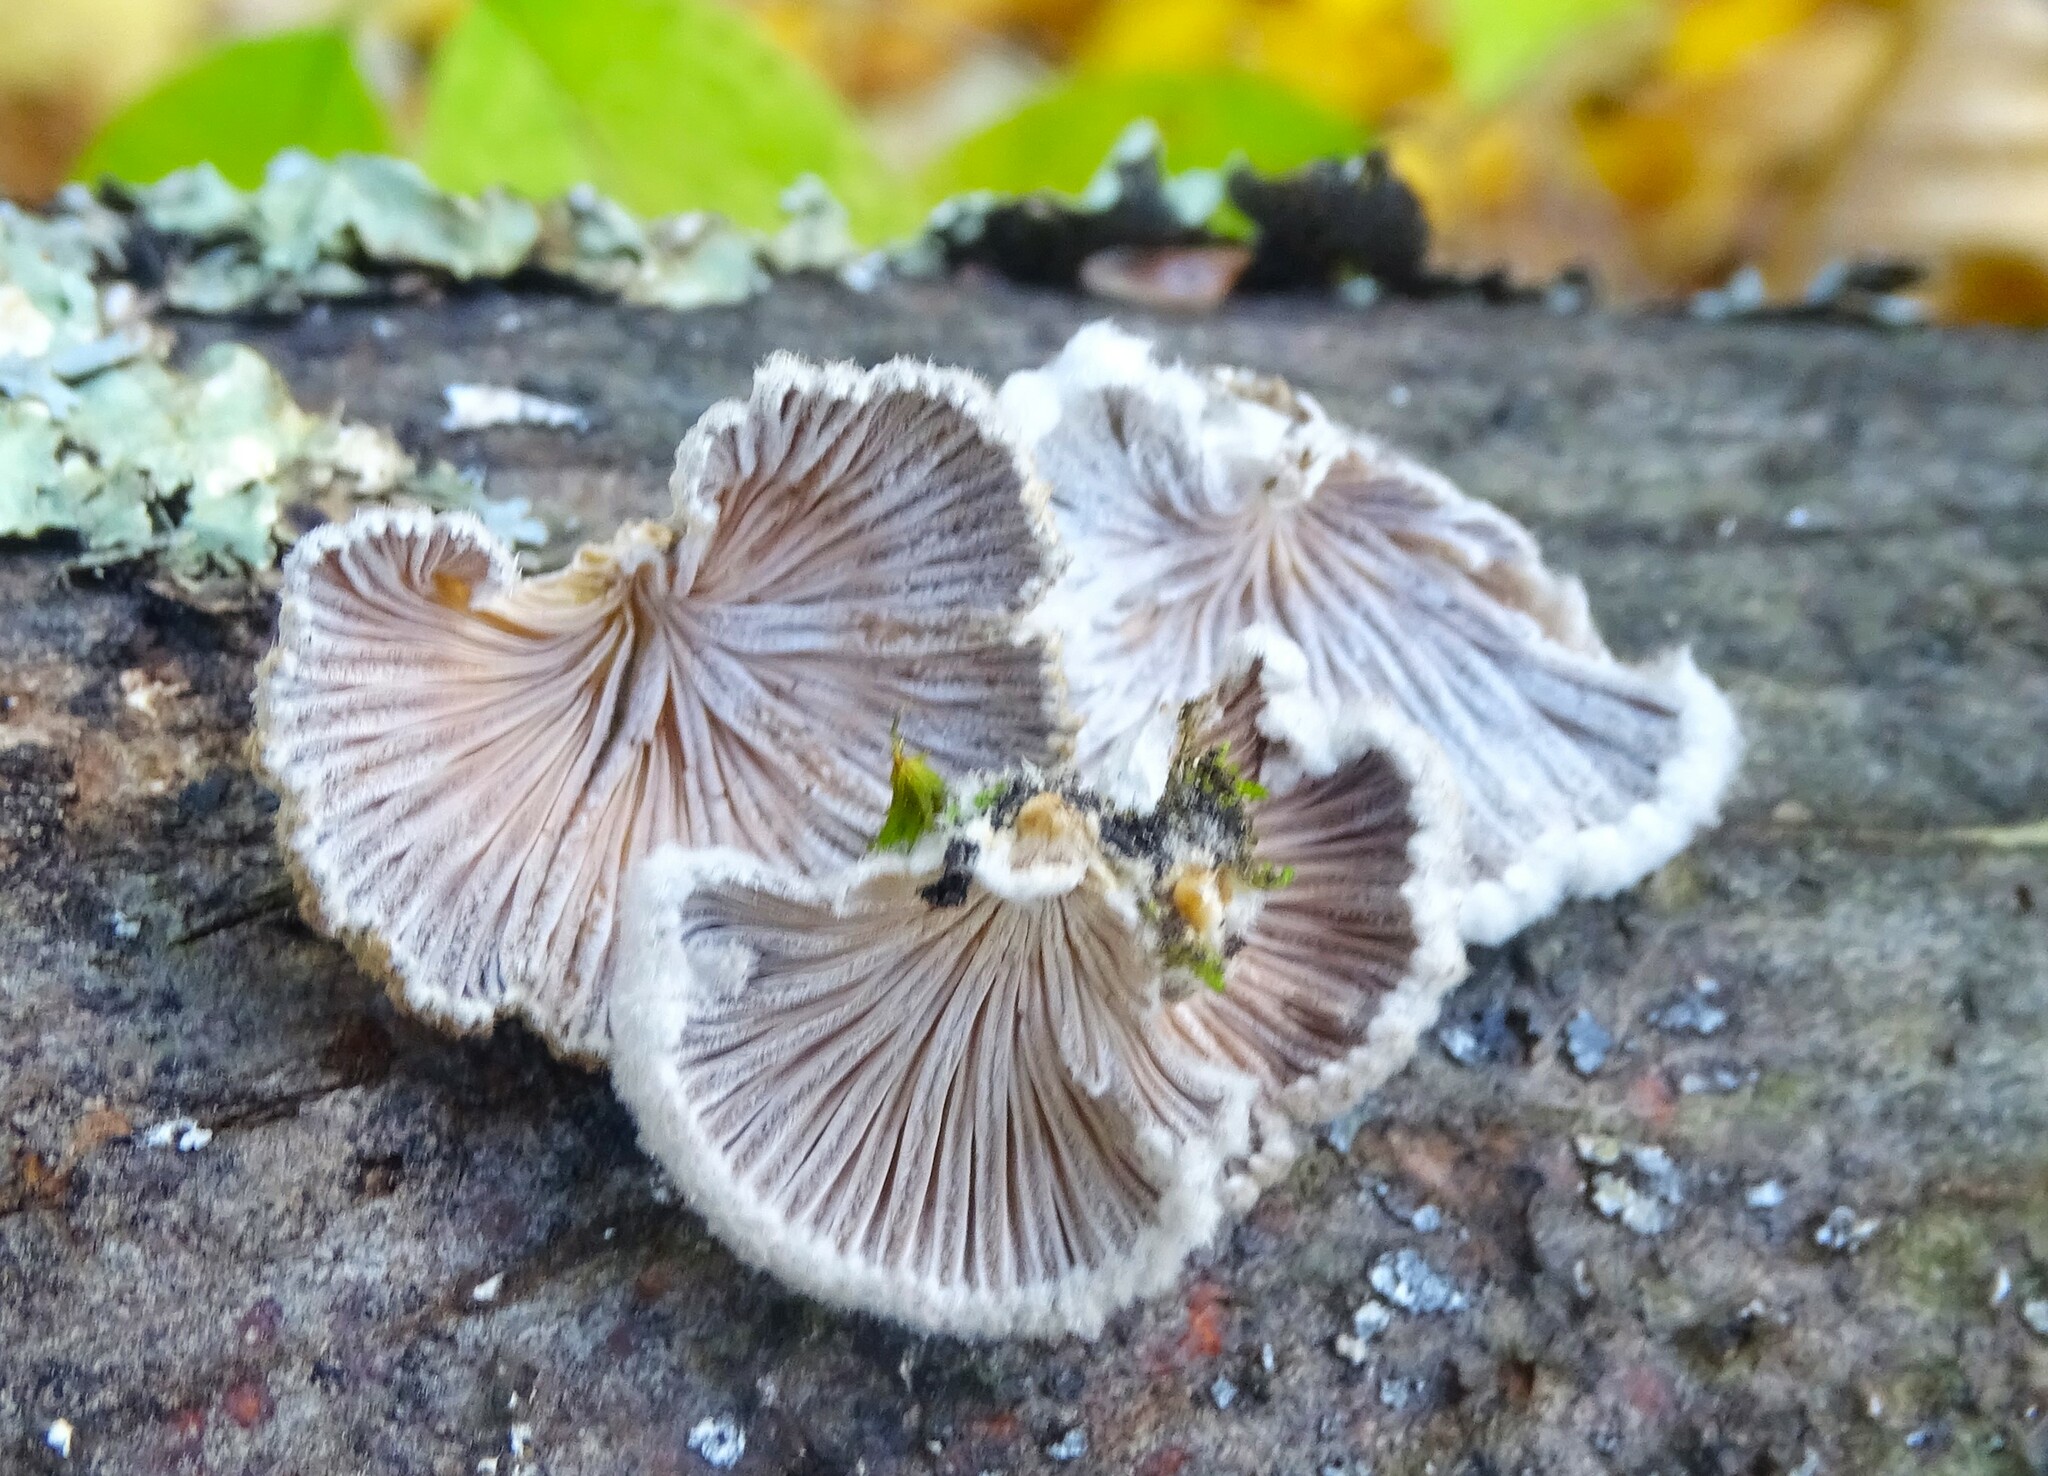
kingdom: Fungi
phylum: Basidiomycota
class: Agaricomycetes
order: Agaricales
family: Schizophyllaceae
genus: Schizophyllum
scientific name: Schizophyllum commune
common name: Common porecrust
